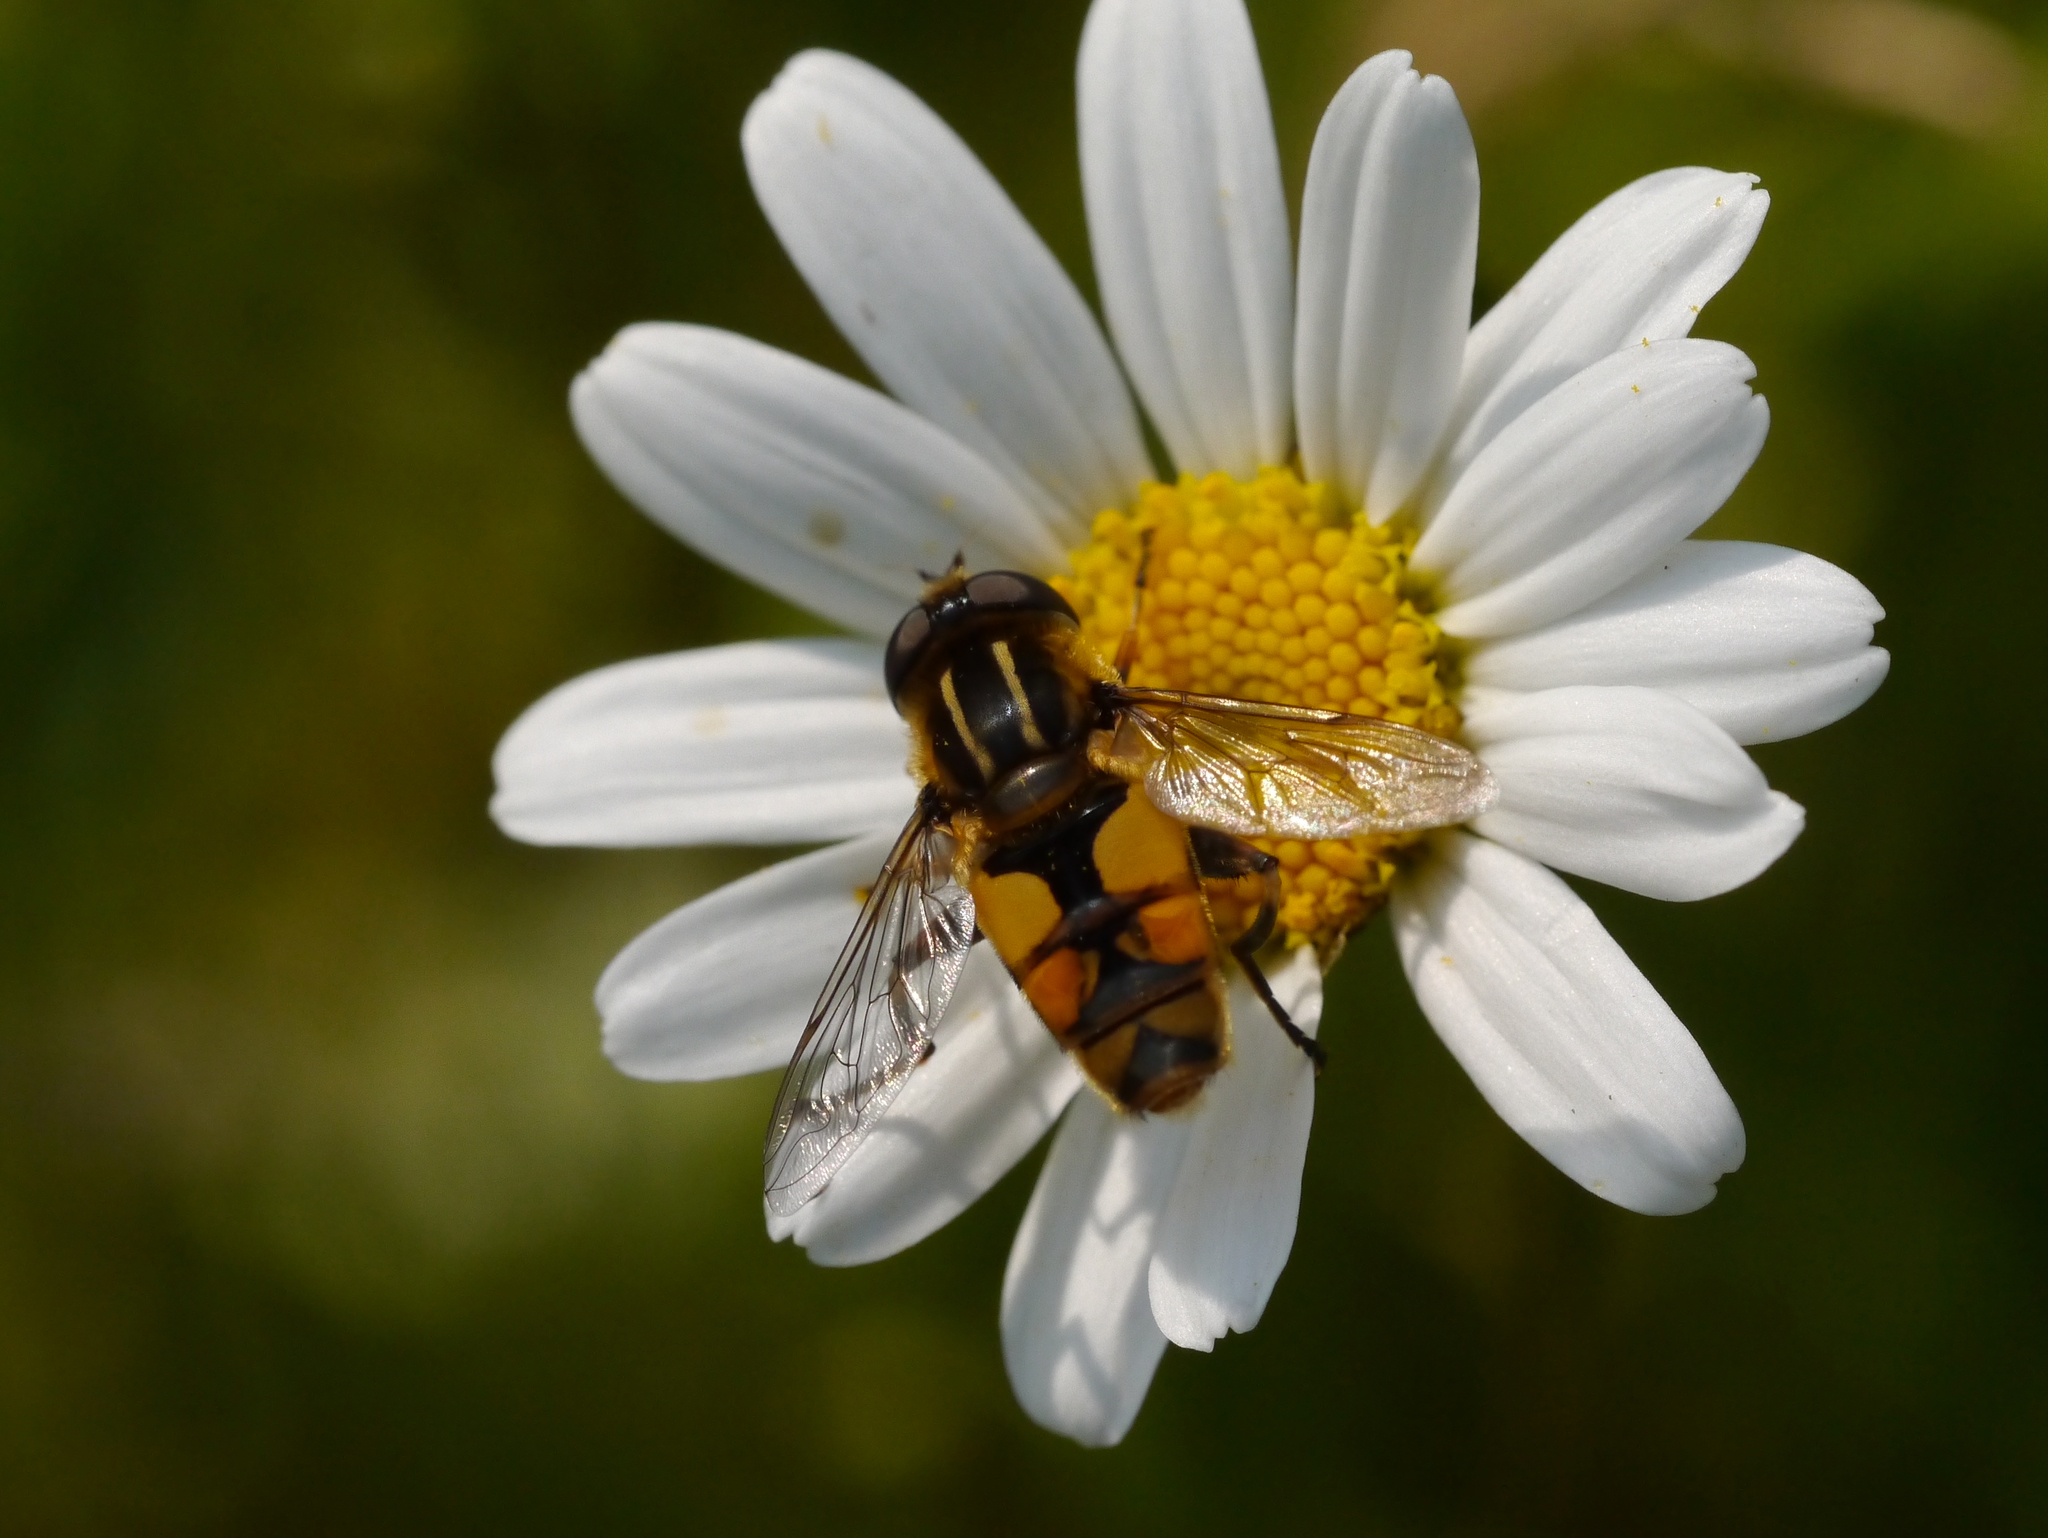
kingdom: Animalia
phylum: Arthropoda
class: Insecta
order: Diptera
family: Syrphidae
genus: Helophilus
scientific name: Helophilus hybridus
